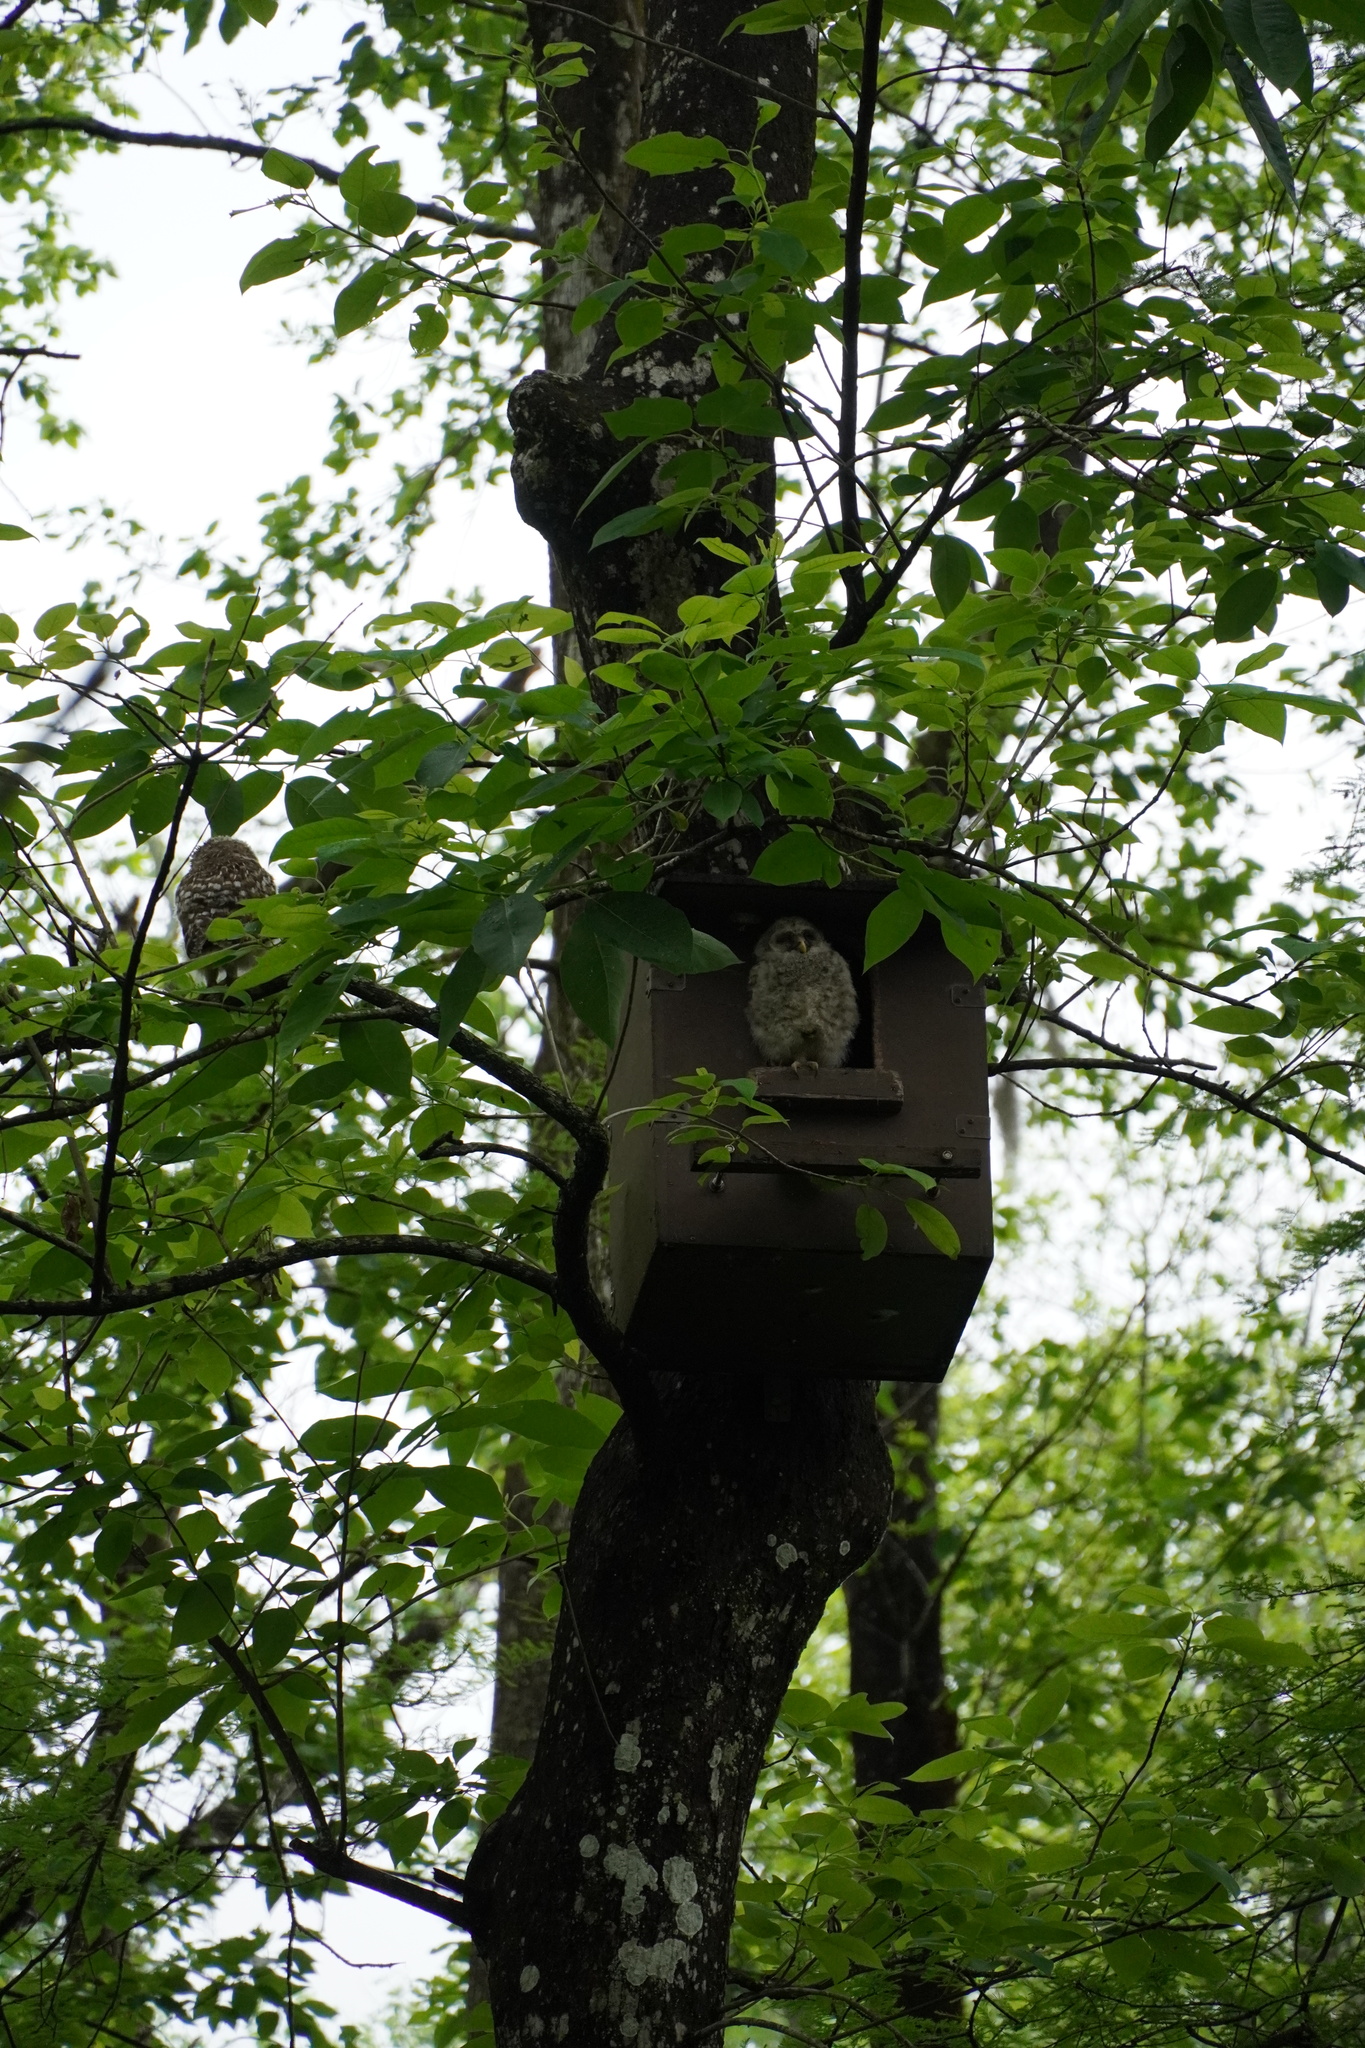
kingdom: Animalia
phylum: Chordata
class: Aves
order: Strigiformes
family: Strigidae
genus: Strix
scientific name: Strix varia
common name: Barred owl
